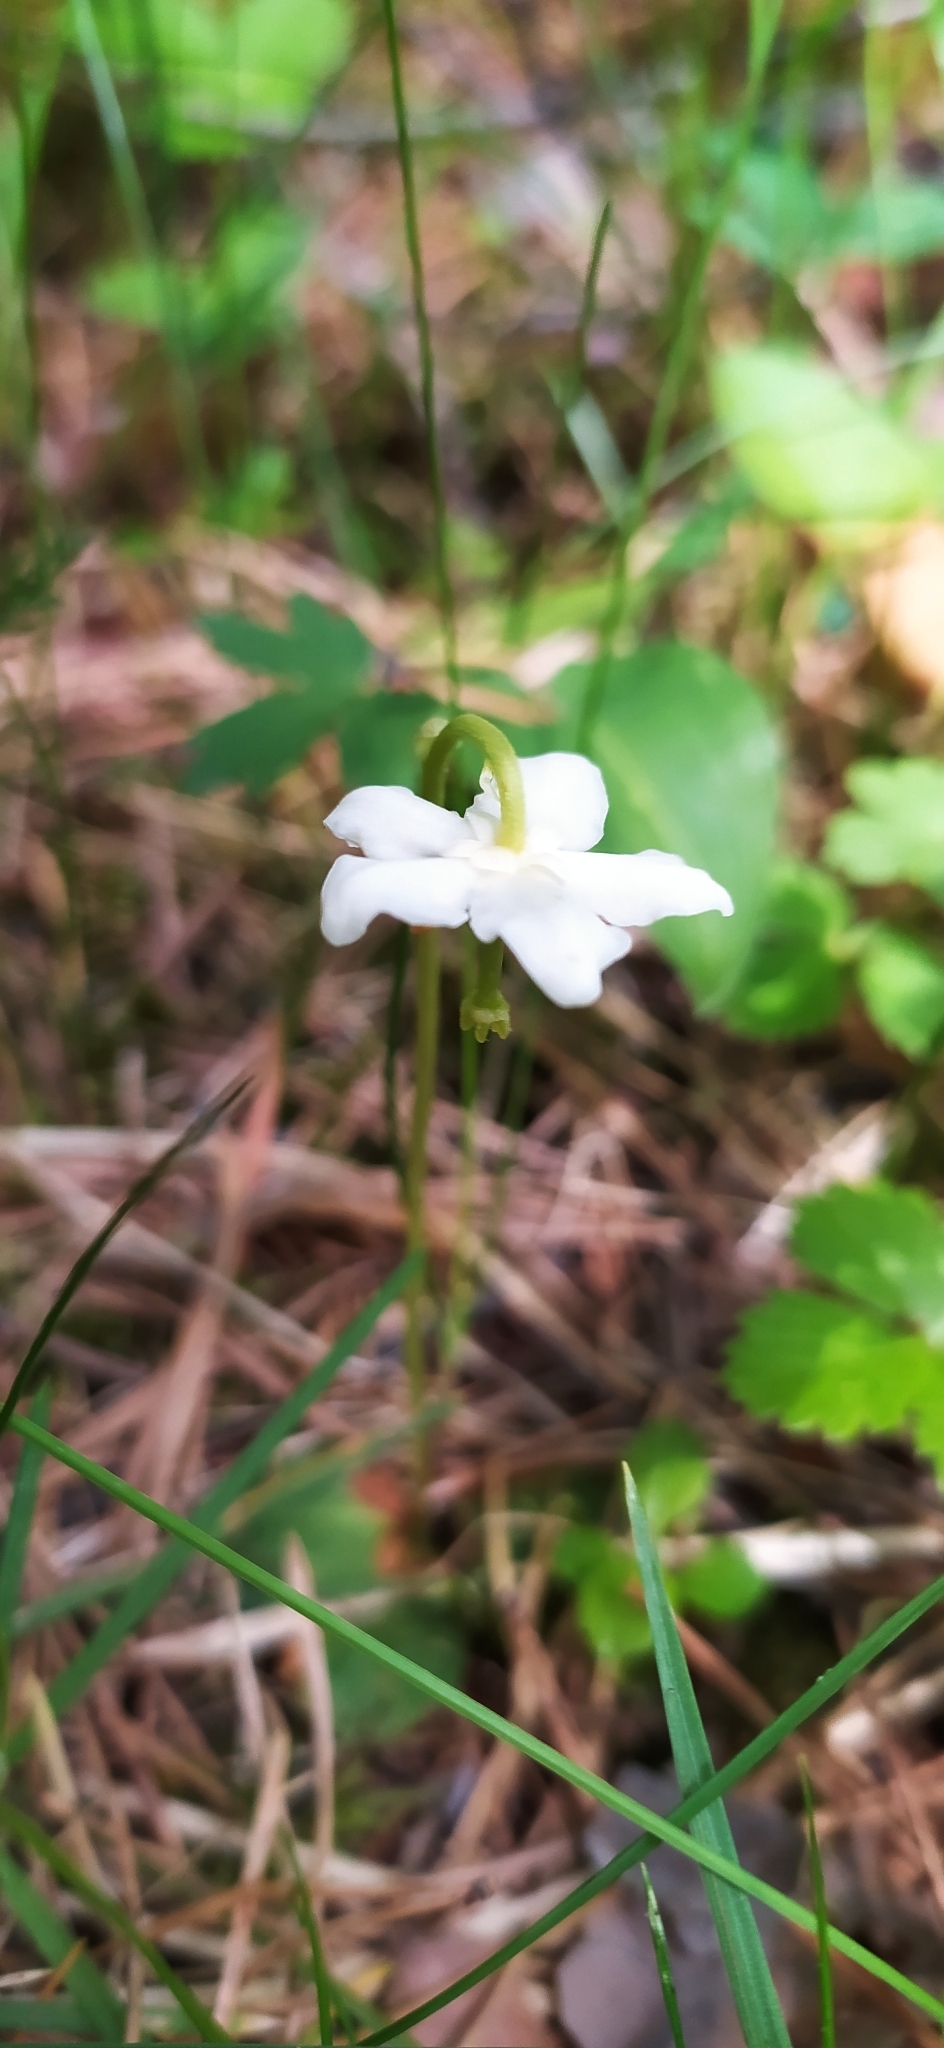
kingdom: Plantae
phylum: Tracheophyta
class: Magnoliopsida
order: Ericales
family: Ericaceae
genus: Moneses
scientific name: Moneses uniflora
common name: One-flowered wintergreen
